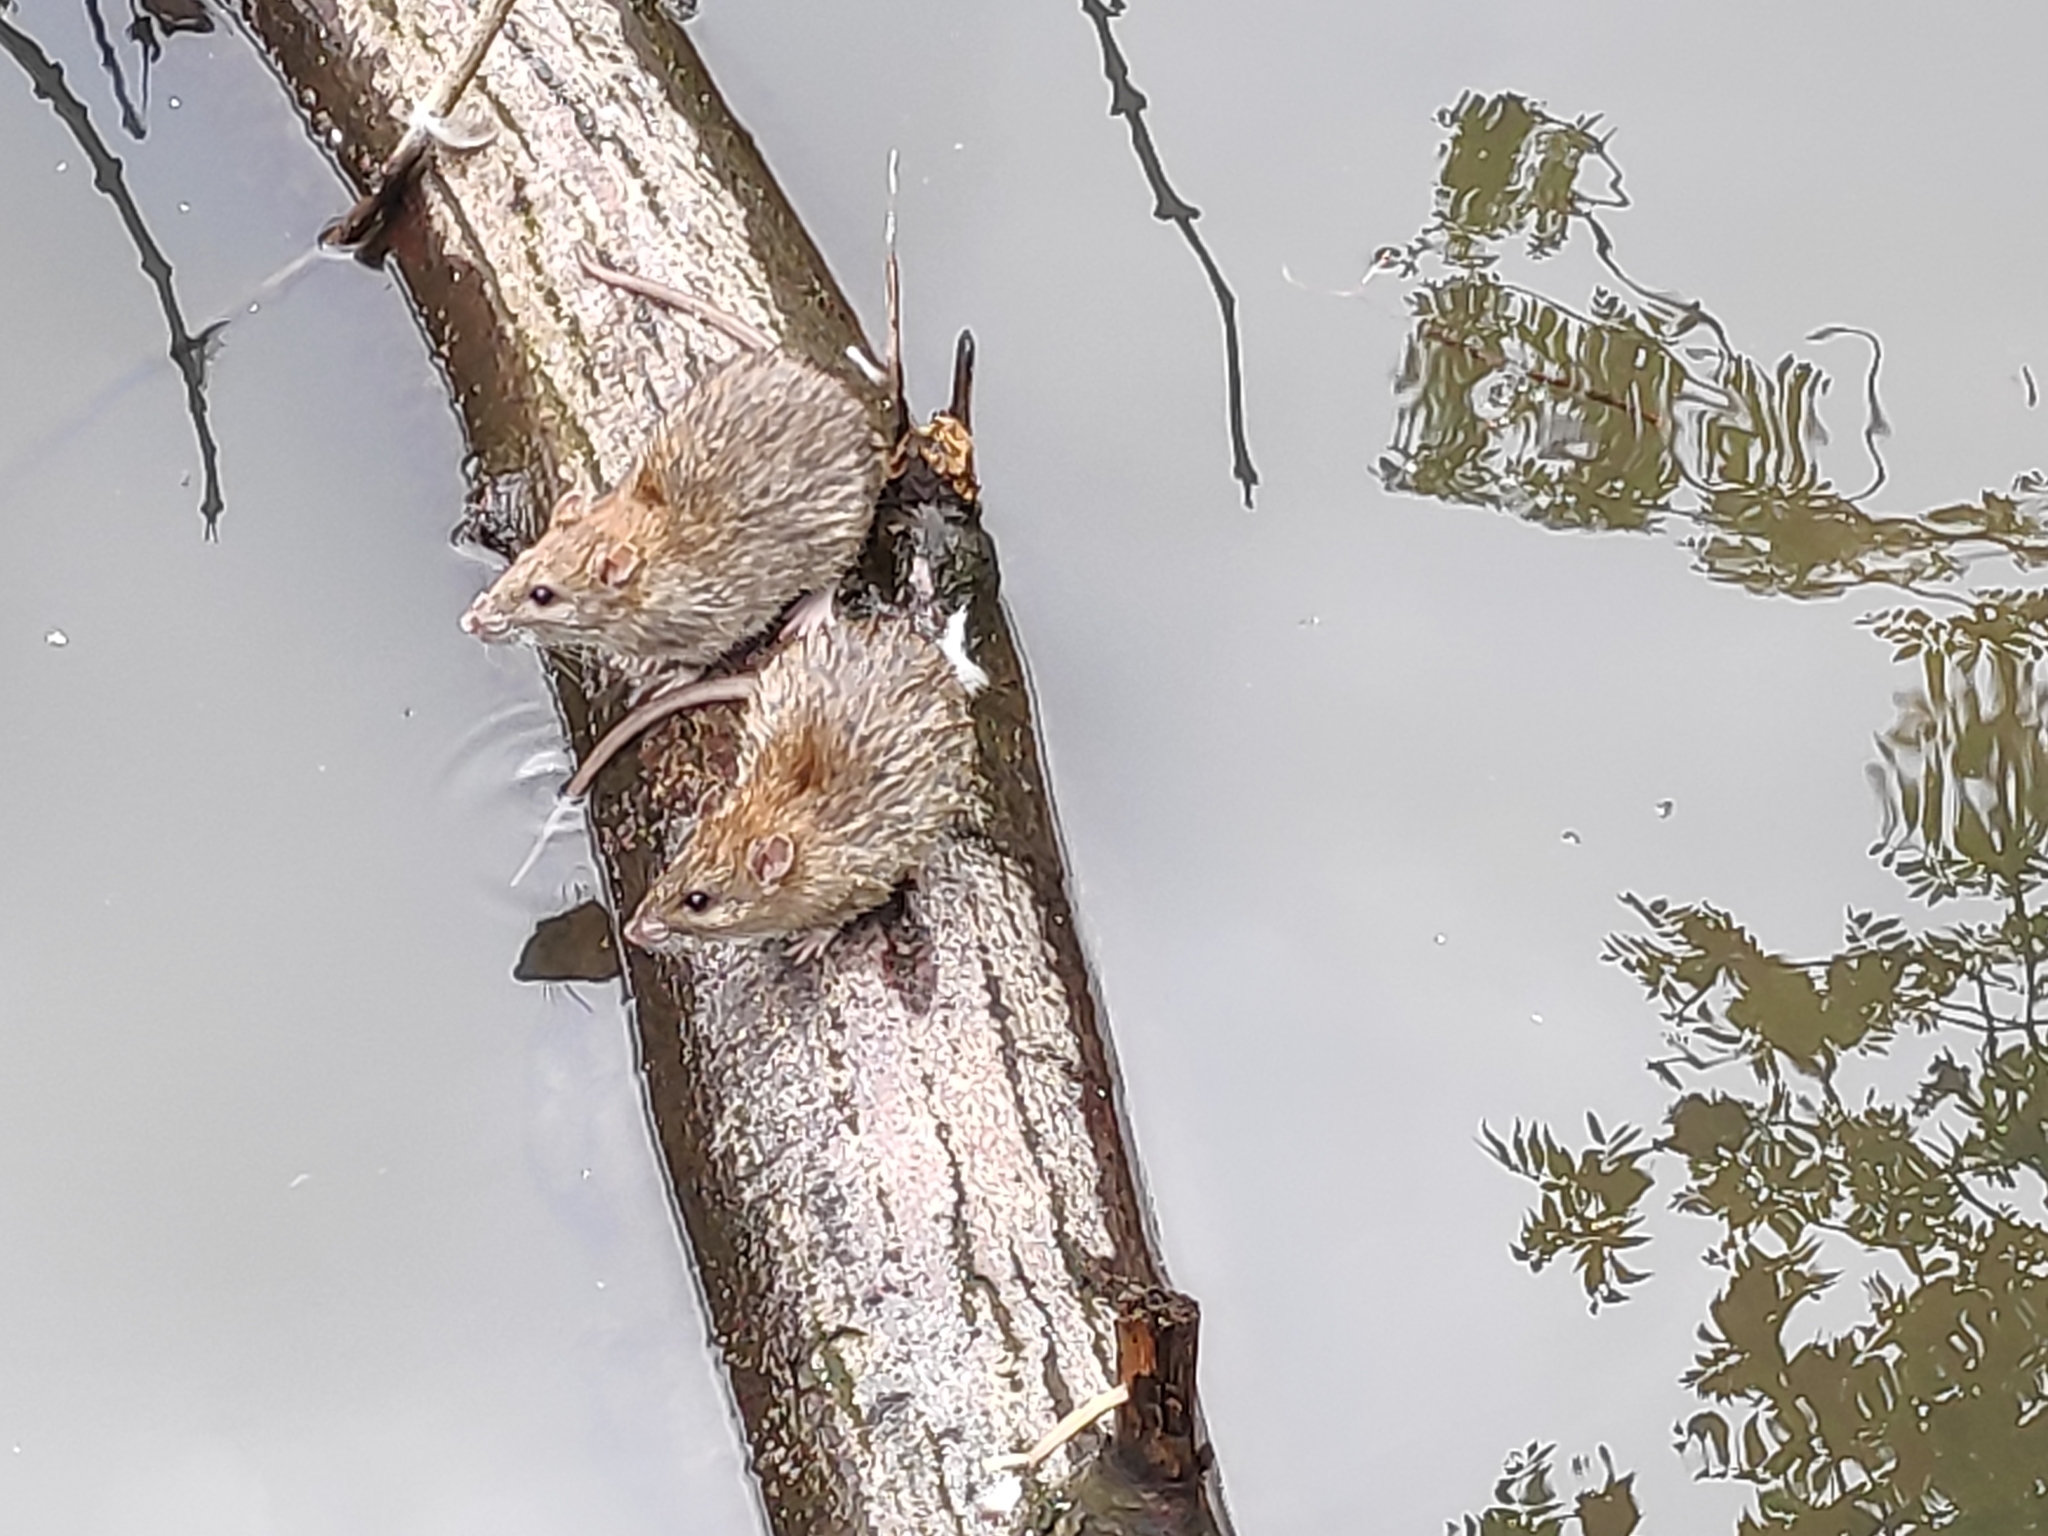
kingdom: Animalia
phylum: Chordata
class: Mammalia
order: Rodentia
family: Muridae
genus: Rattus
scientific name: Rattus norvegicus
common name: Brown rat
